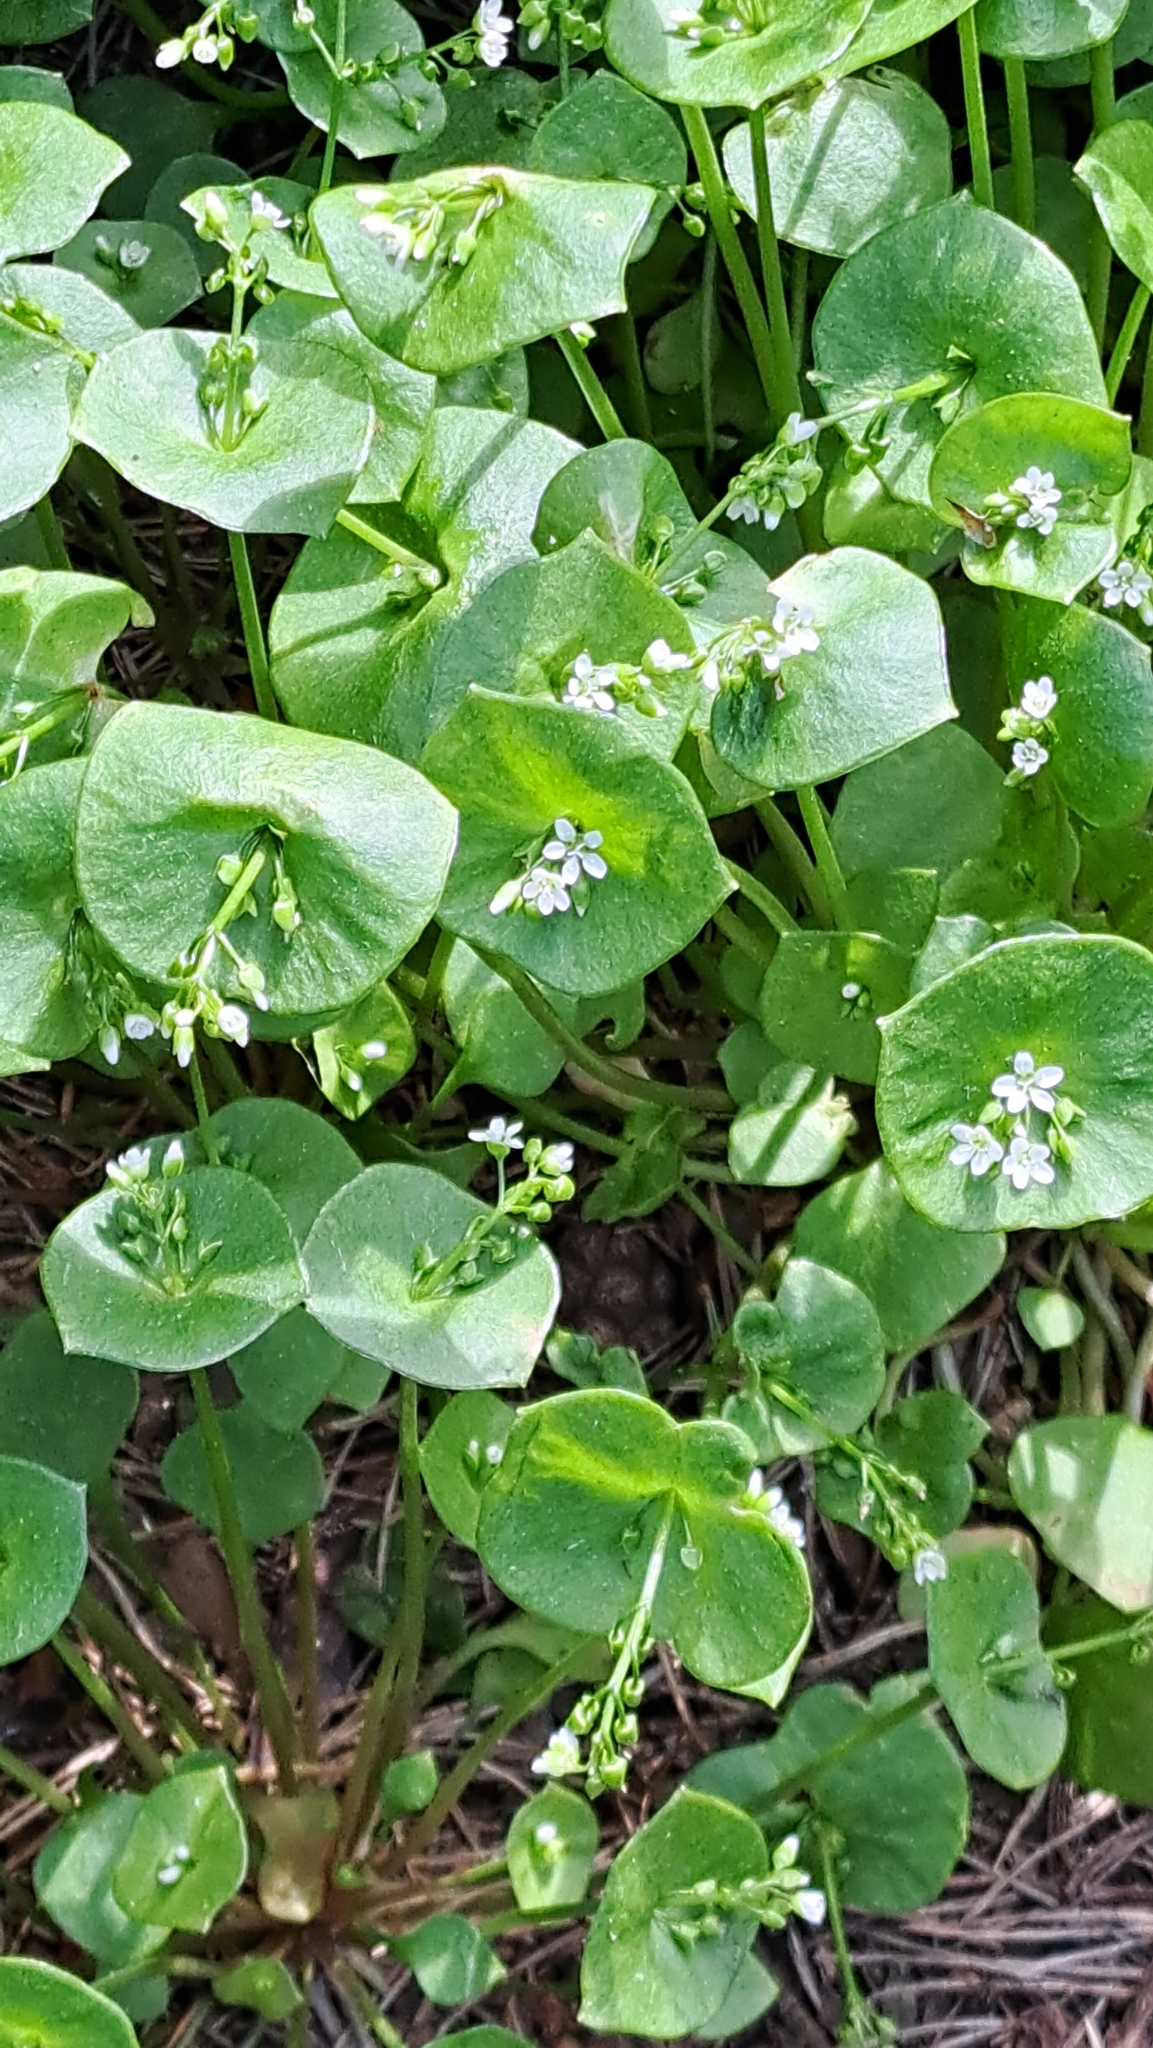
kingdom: Plantae
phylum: Tracheophyta
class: Magnoliopsida
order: Caryophyllales
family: Montiaceae
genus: Claytonia
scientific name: Claytonia perfoliata
